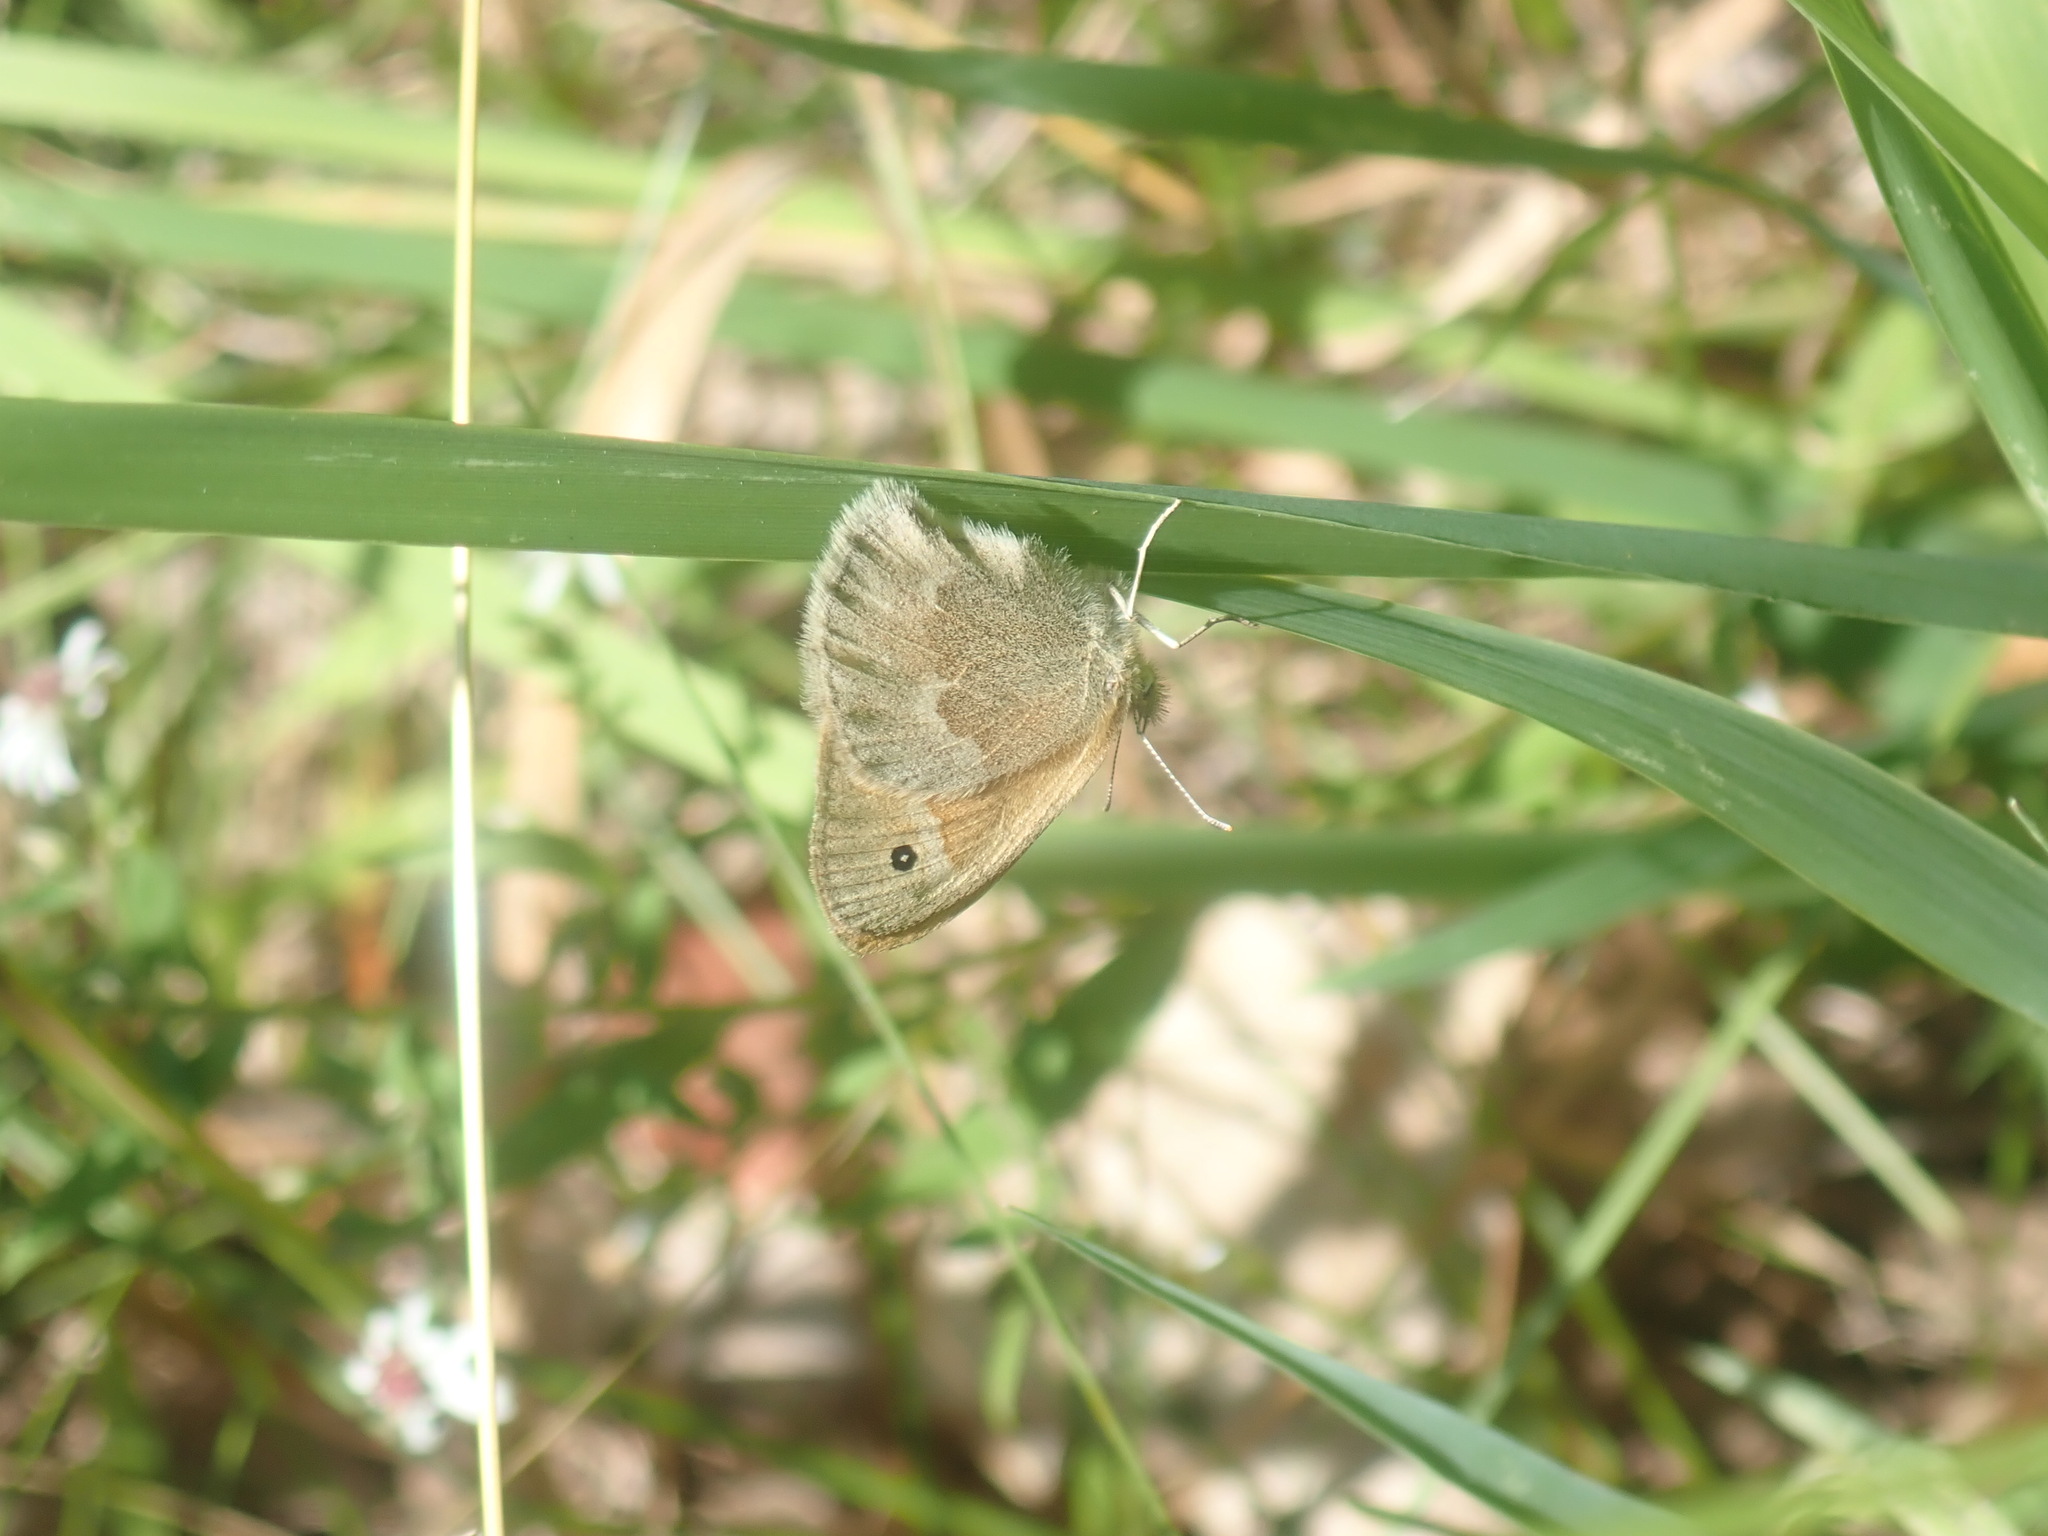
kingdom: Animalia
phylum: Arthropoda
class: Insecta
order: Lepidoptera
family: Nymphalidae
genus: Coenonympha
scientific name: Coenonympha california
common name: Common ringlet
